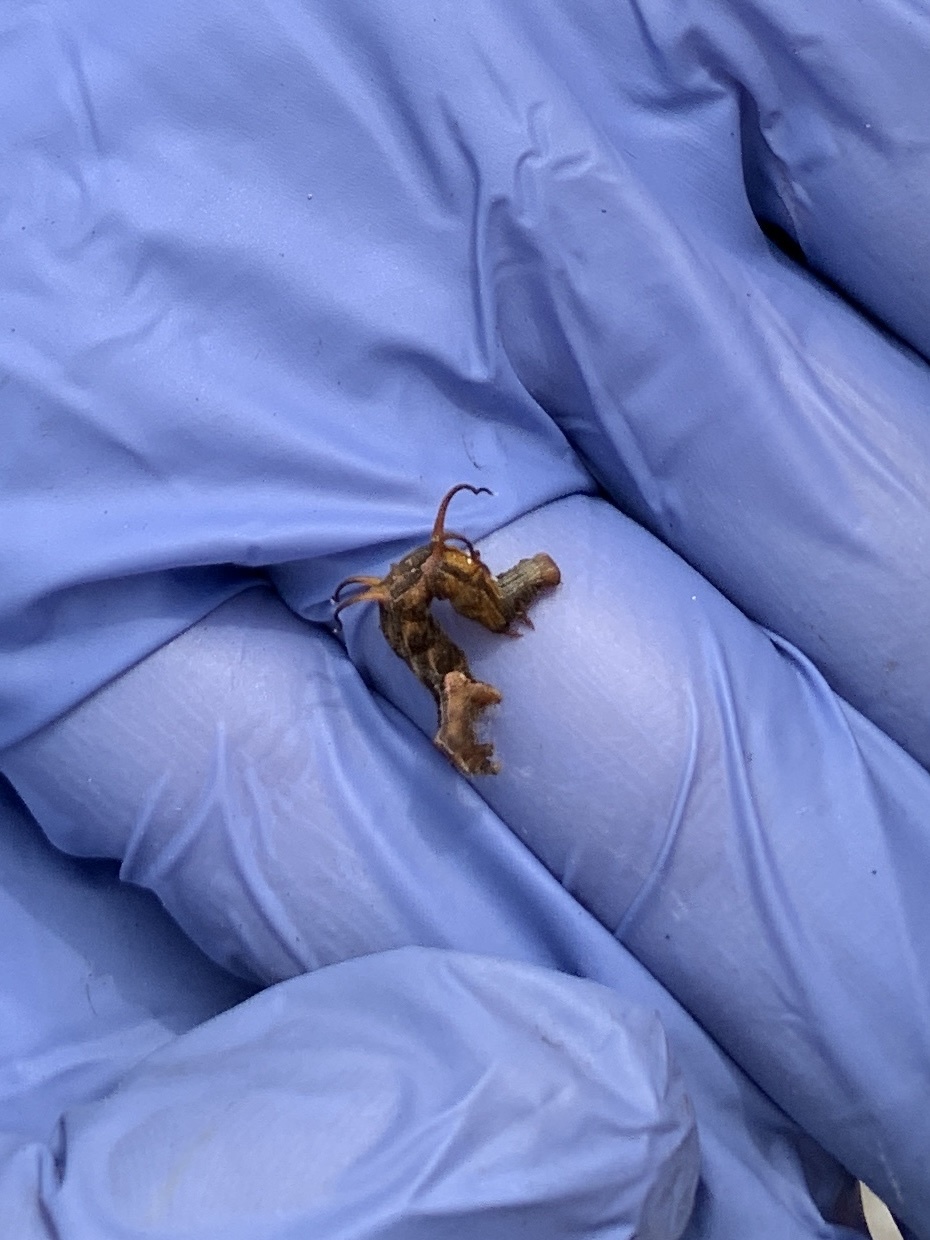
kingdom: Animalia
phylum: Arthropoda
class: Insecta
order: Lepidoptera
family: Geometridae
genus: Nematocampa
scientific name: Nematocampa resistaria
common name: Horned spanworm moth
